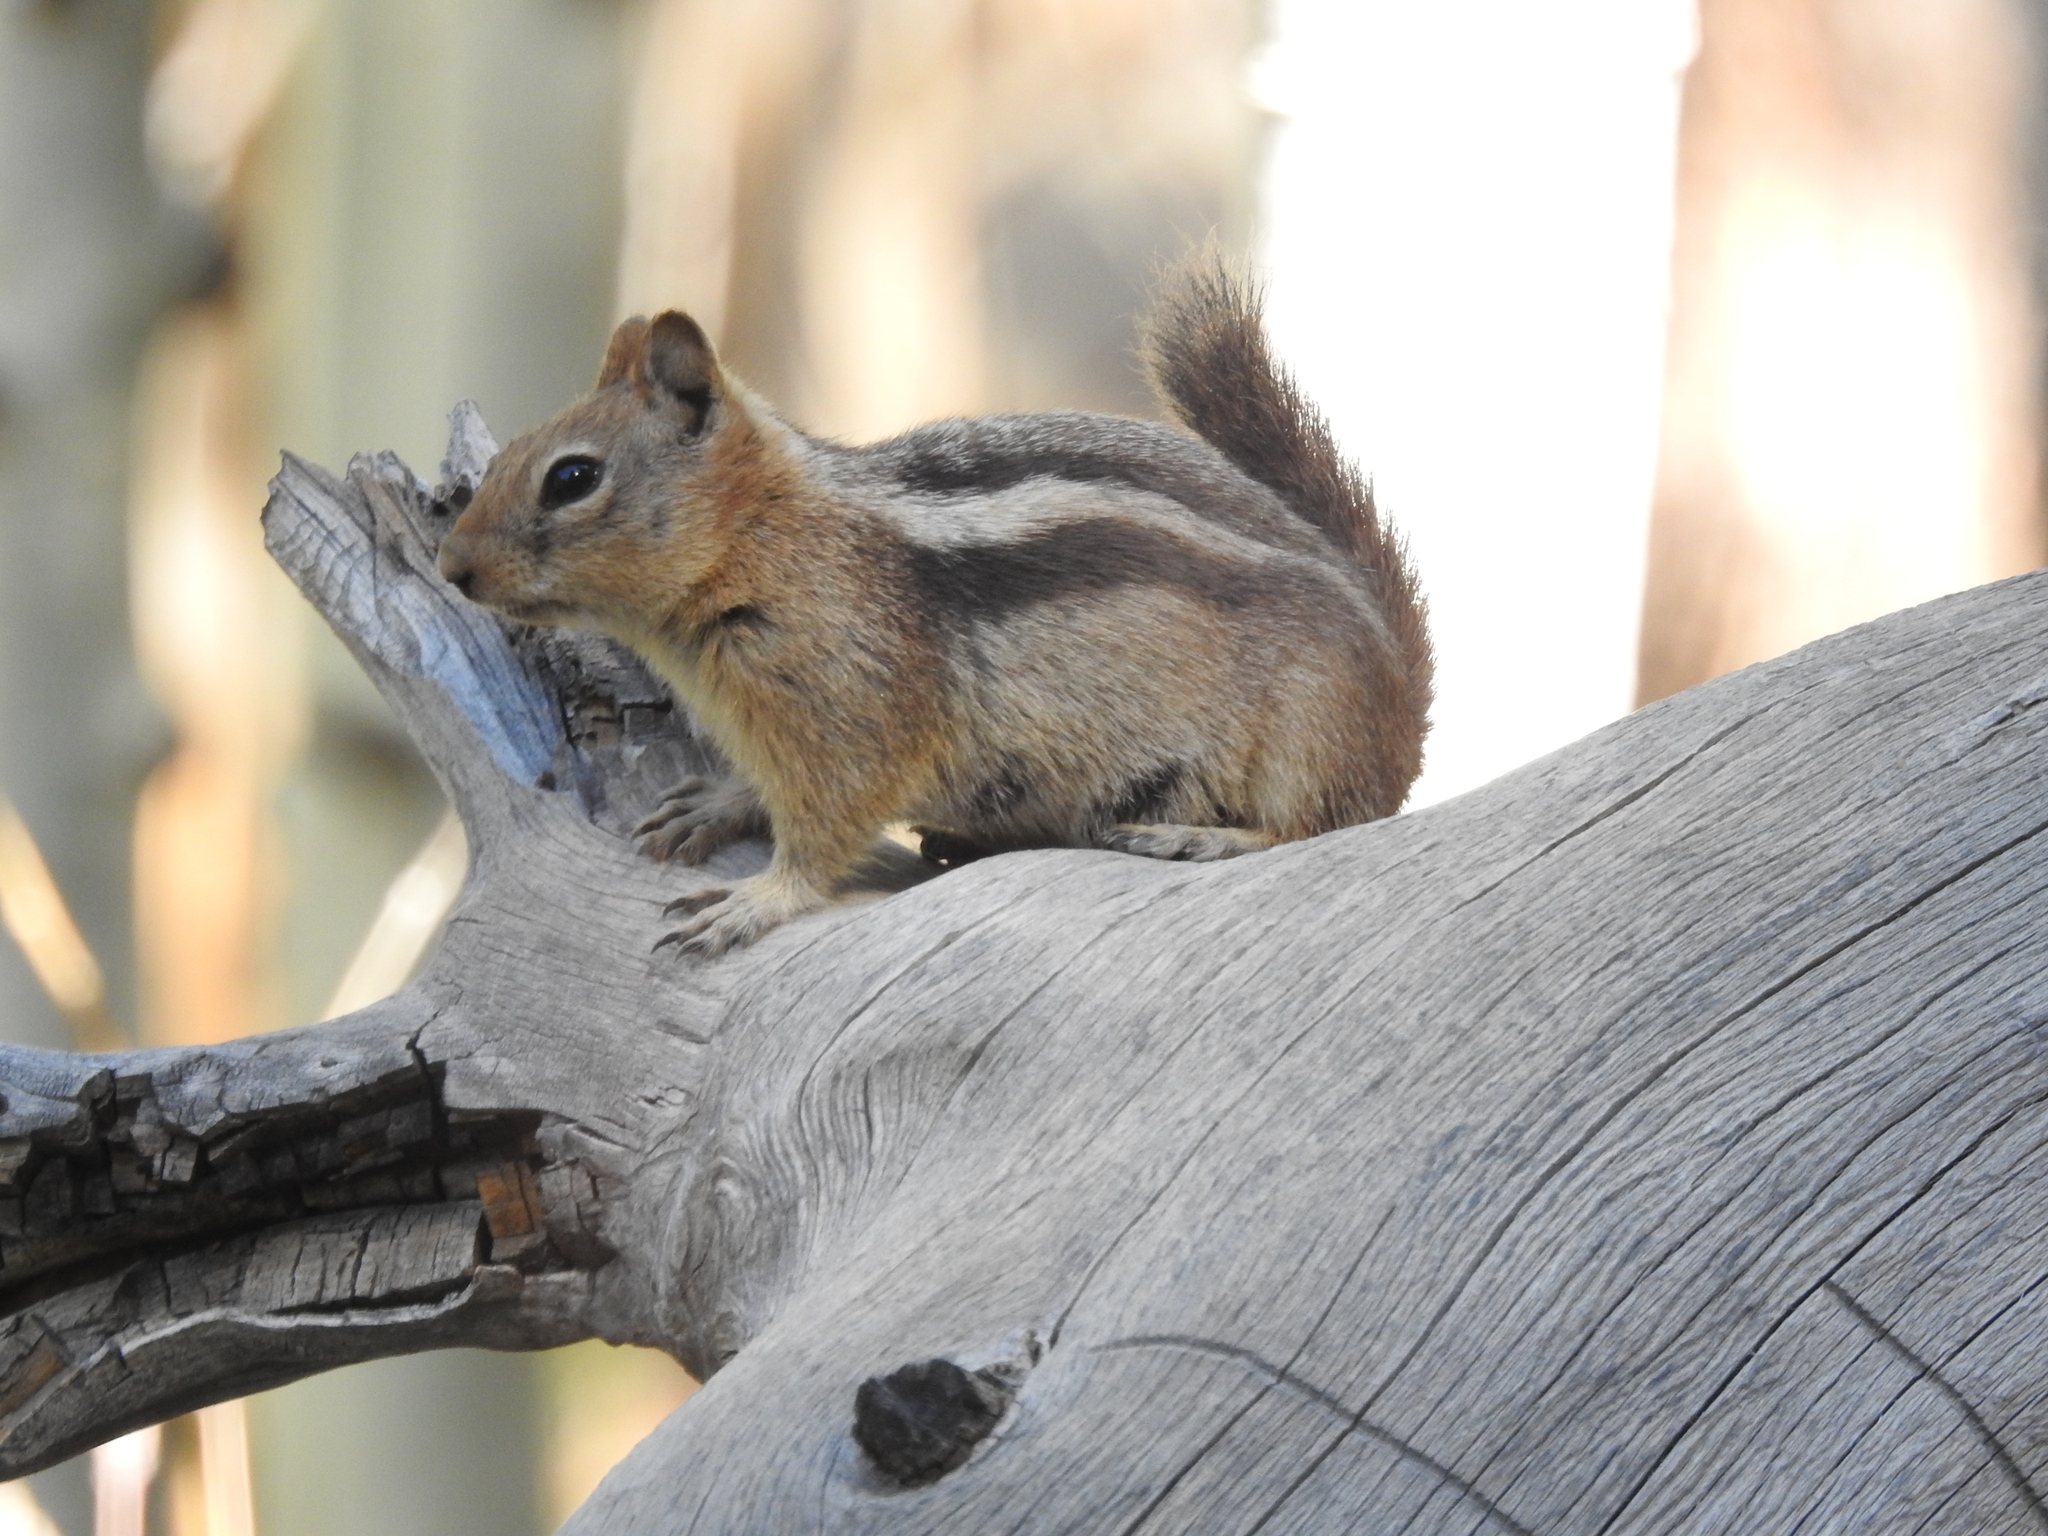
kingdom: Animalia
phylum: Chordata
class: Mammalia
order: Rodentia
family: Sciuridae
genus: Callospermophilus
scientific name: Callospermophilus lateralis
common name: Golden-mantled ground squirrel
